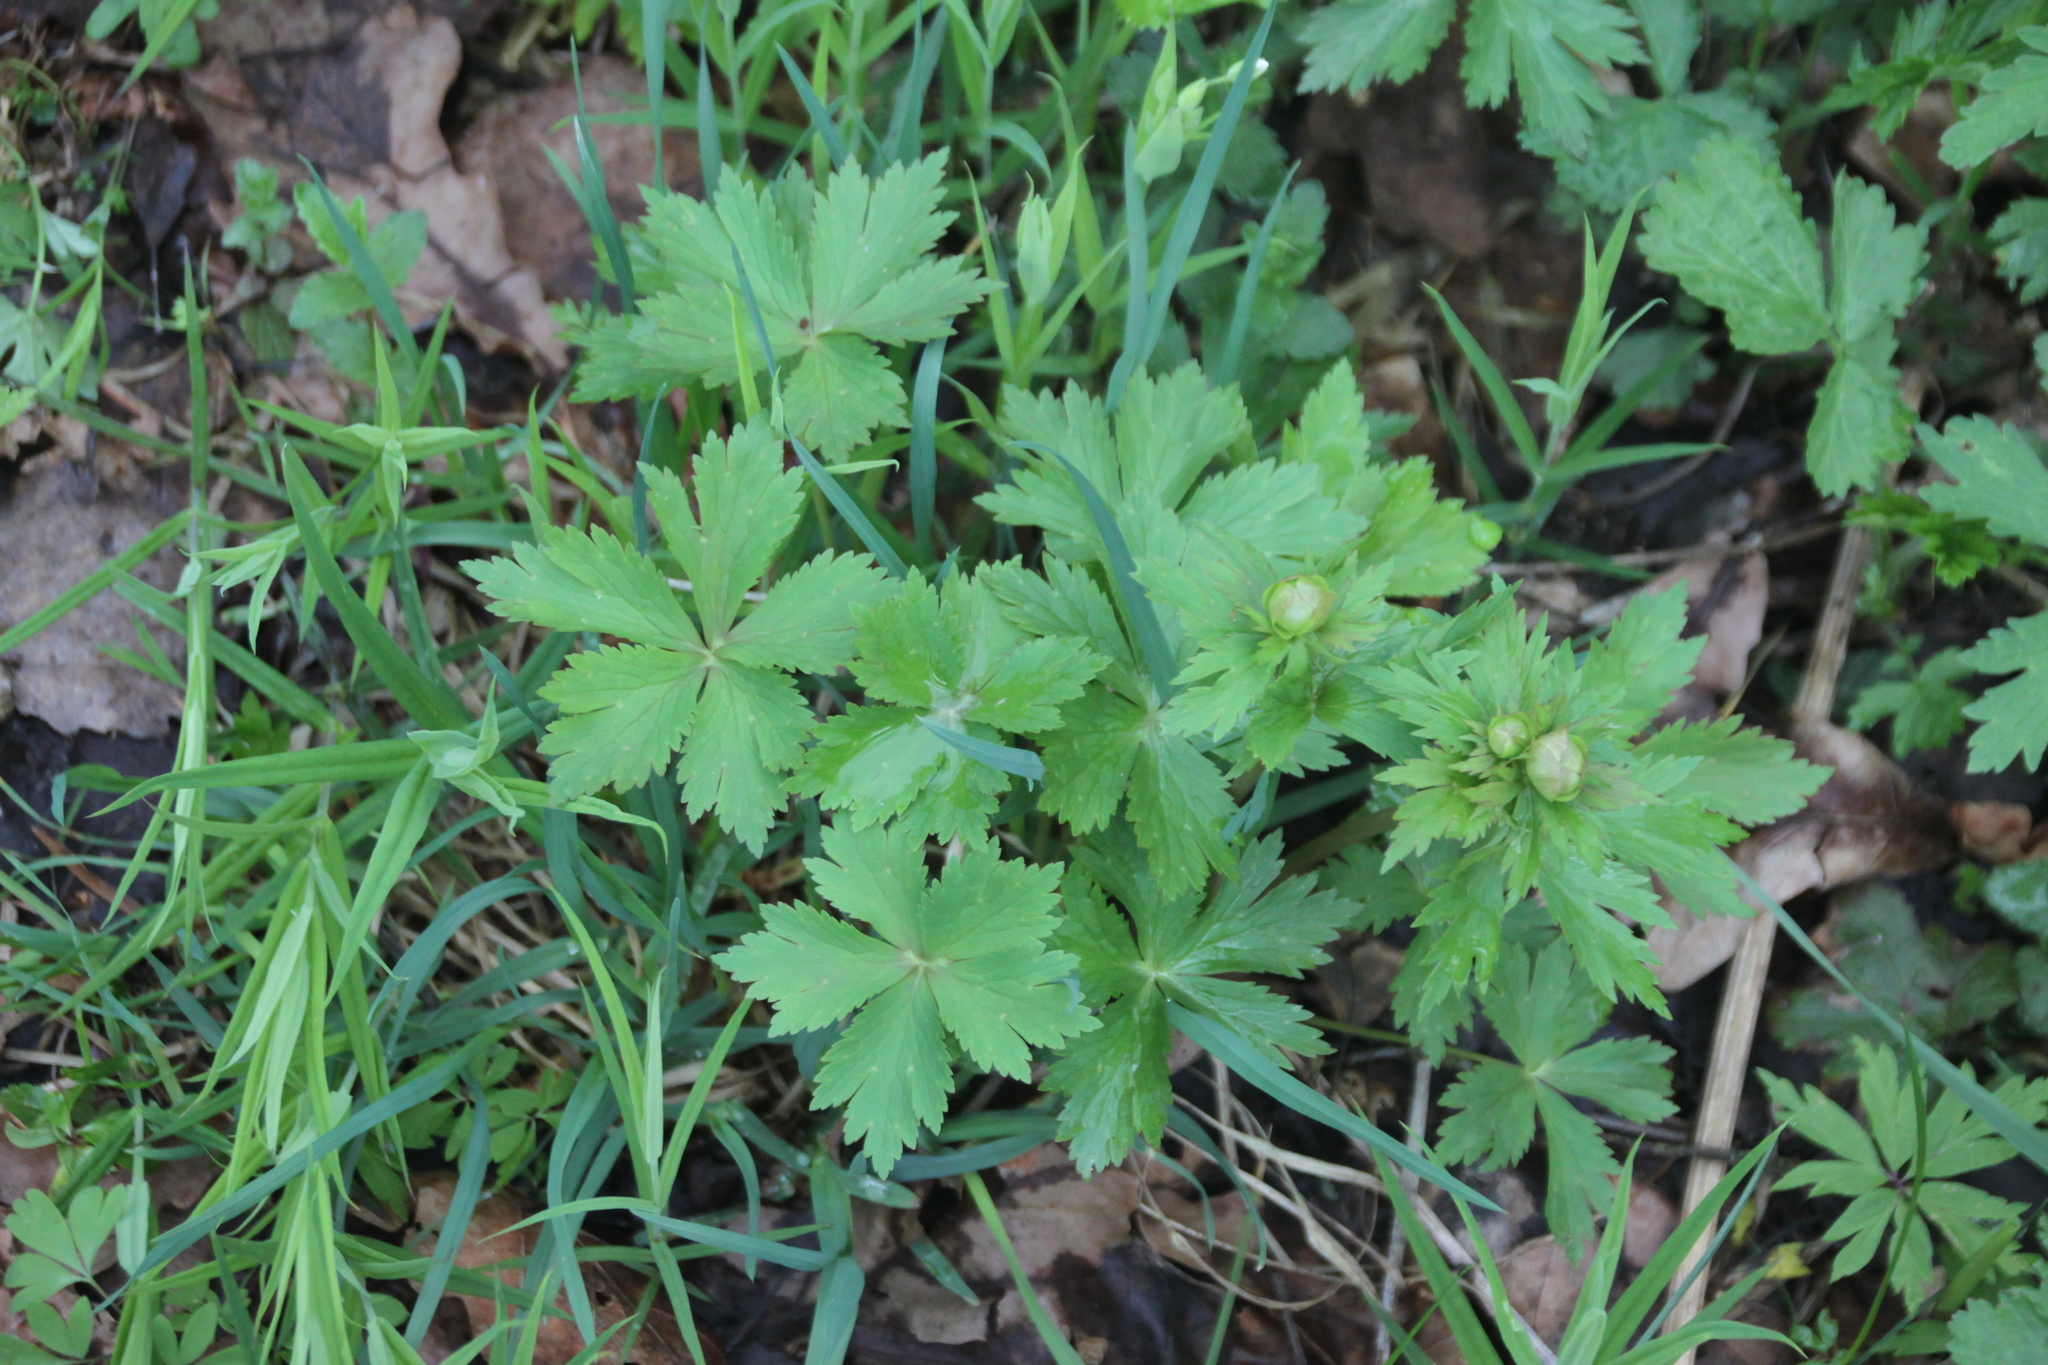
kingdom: Plantae
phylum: Tracheophyta
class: Magnoliopsida
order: Ranunculales
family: Ranunculaceae
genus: Trollius
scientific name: Trollius europaeus
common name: European globeflower
